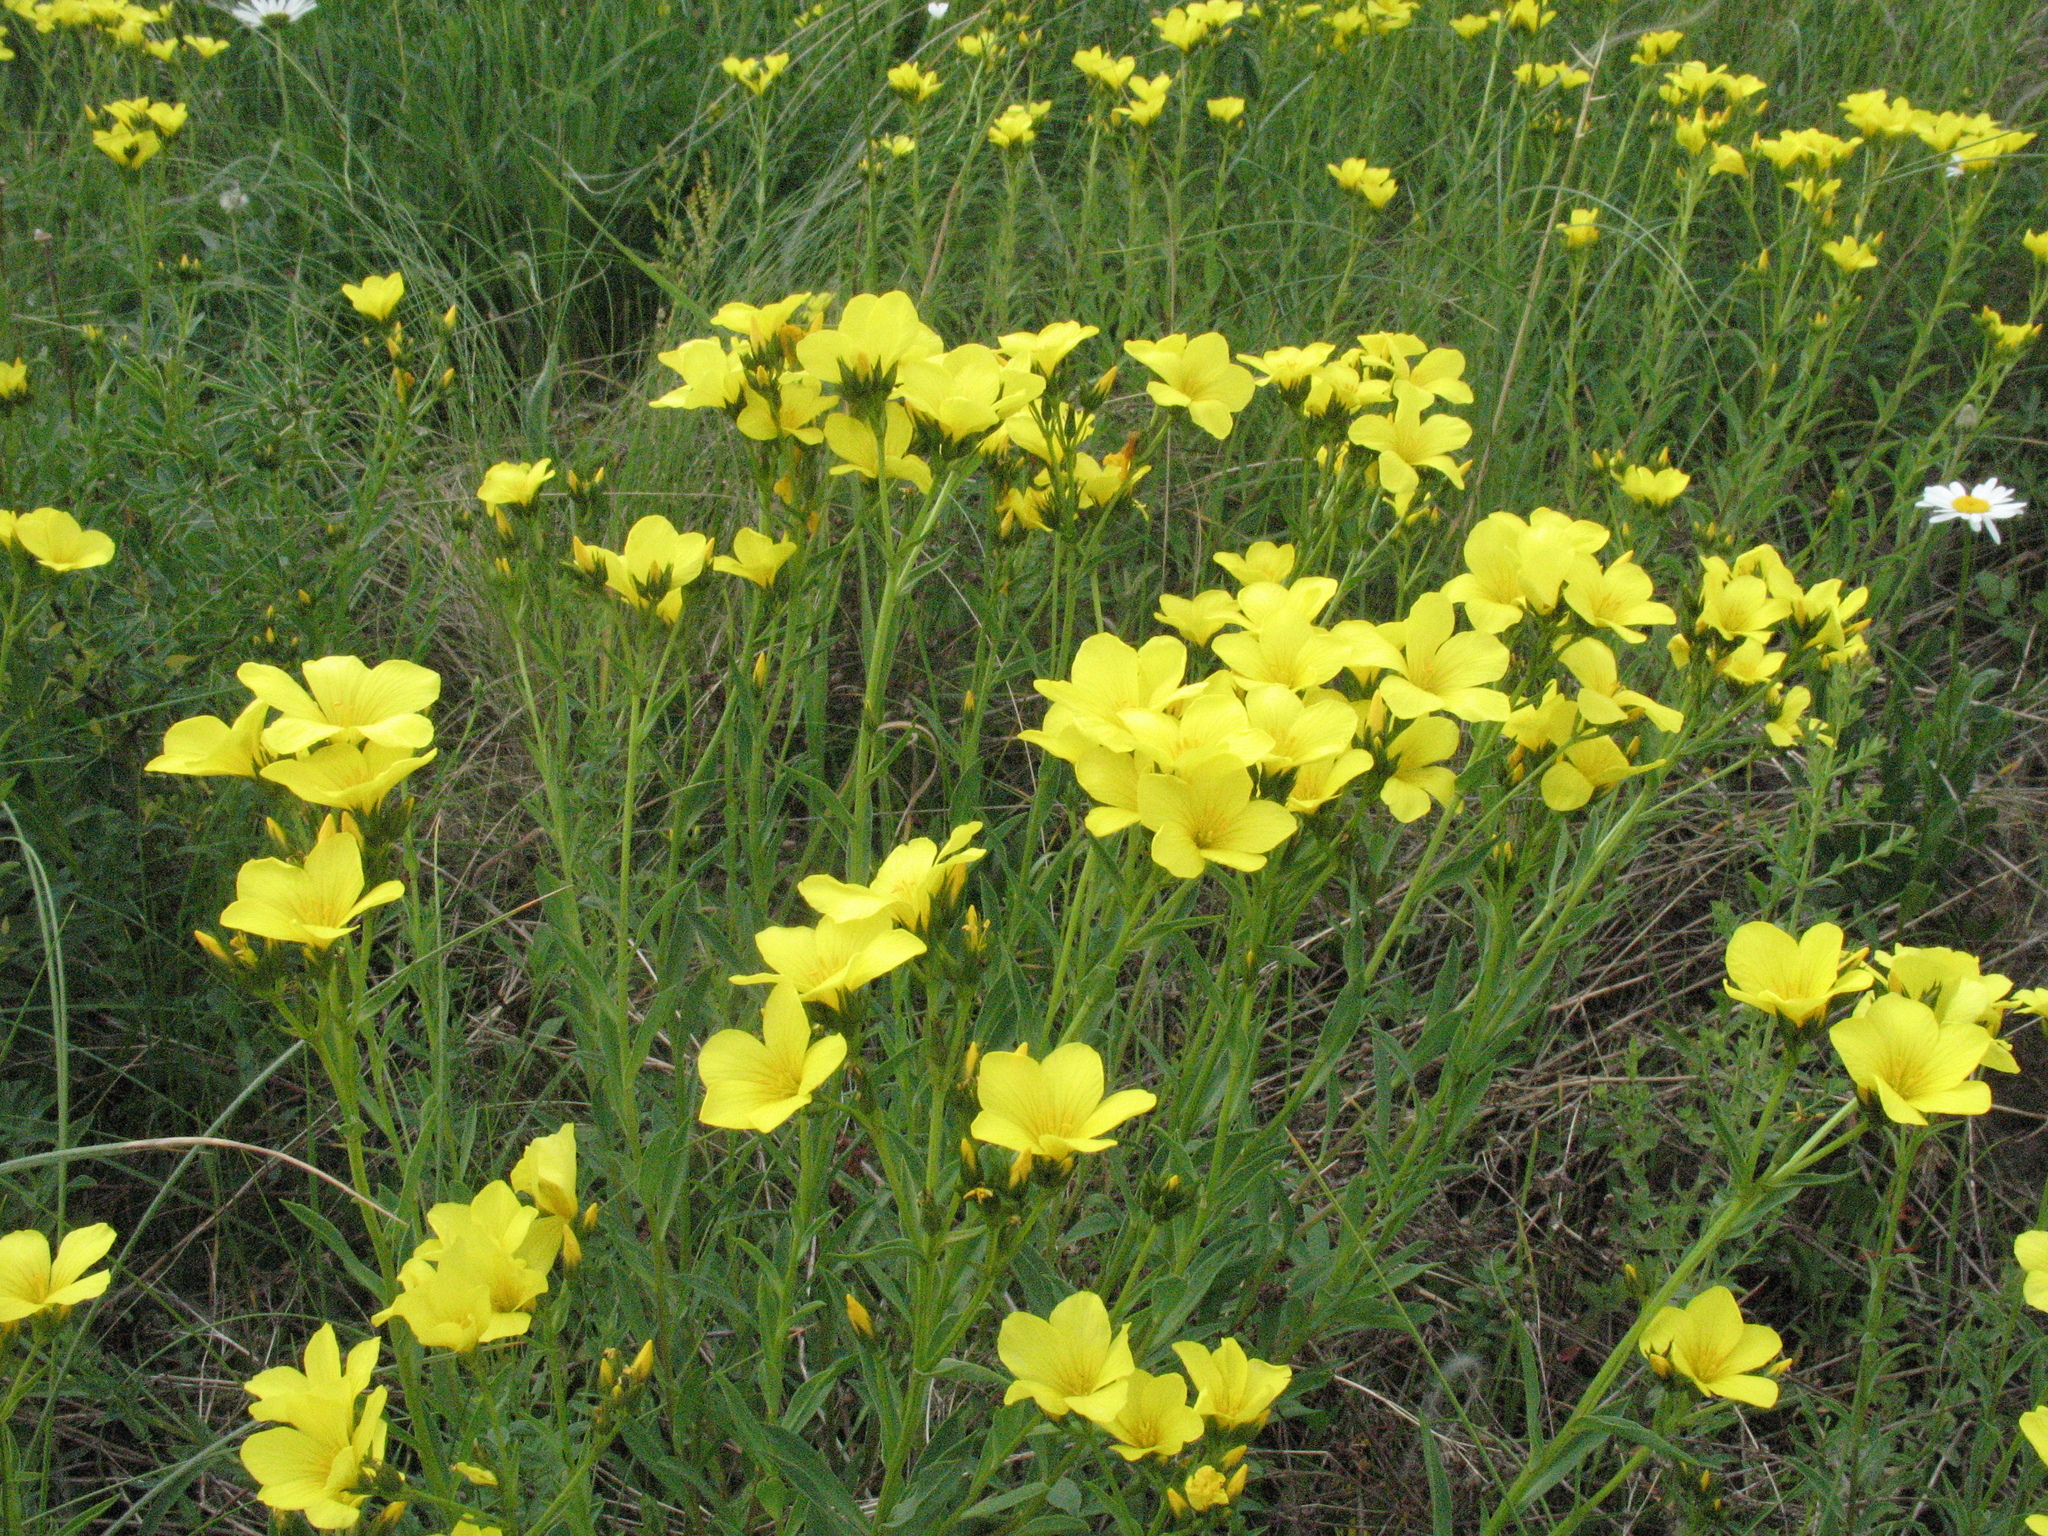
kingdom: Plantae
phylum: Tracheophyta
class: Magnoliopsida
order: Malpighiales
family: Linaceae
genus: Linum
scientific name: Linum flavum
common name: Yellow flax
